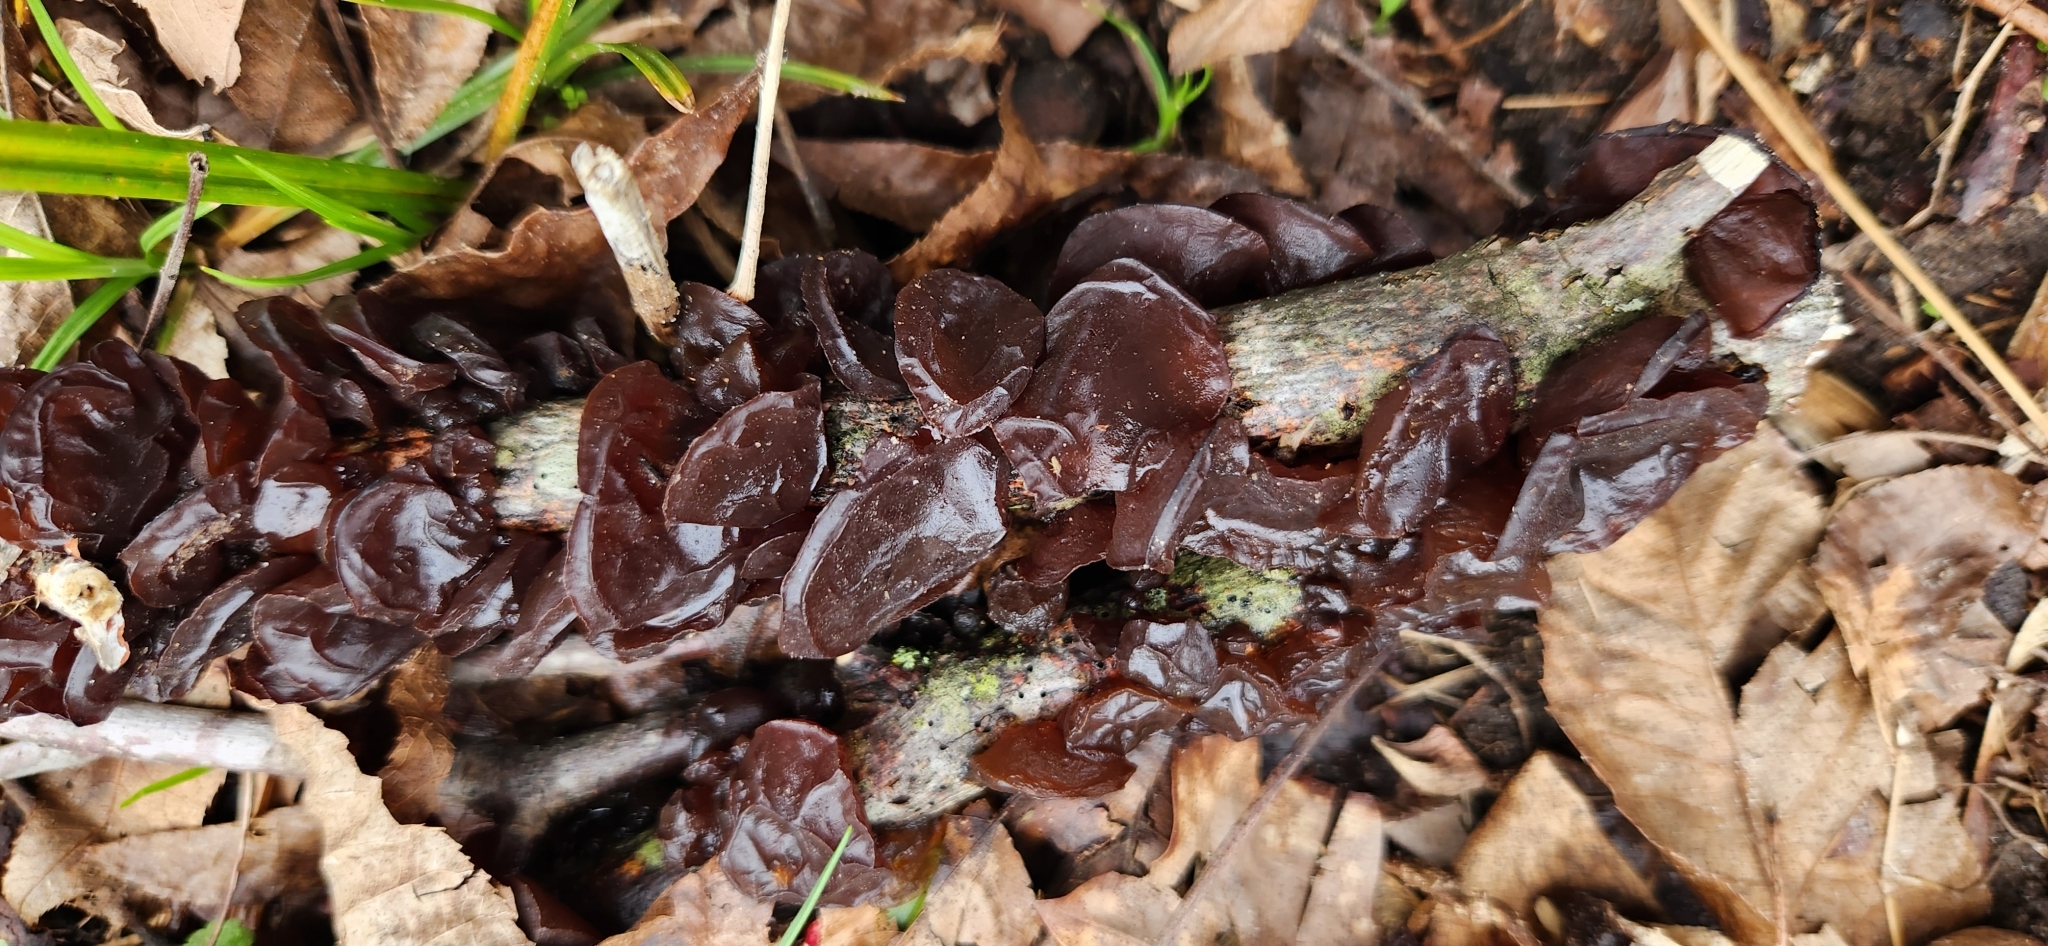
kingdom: Fungi
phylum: Basidiomycota
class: Agaricomycetes
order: Auriculariales
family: Auriculariaceae
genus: Exidia
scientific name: Exidia
